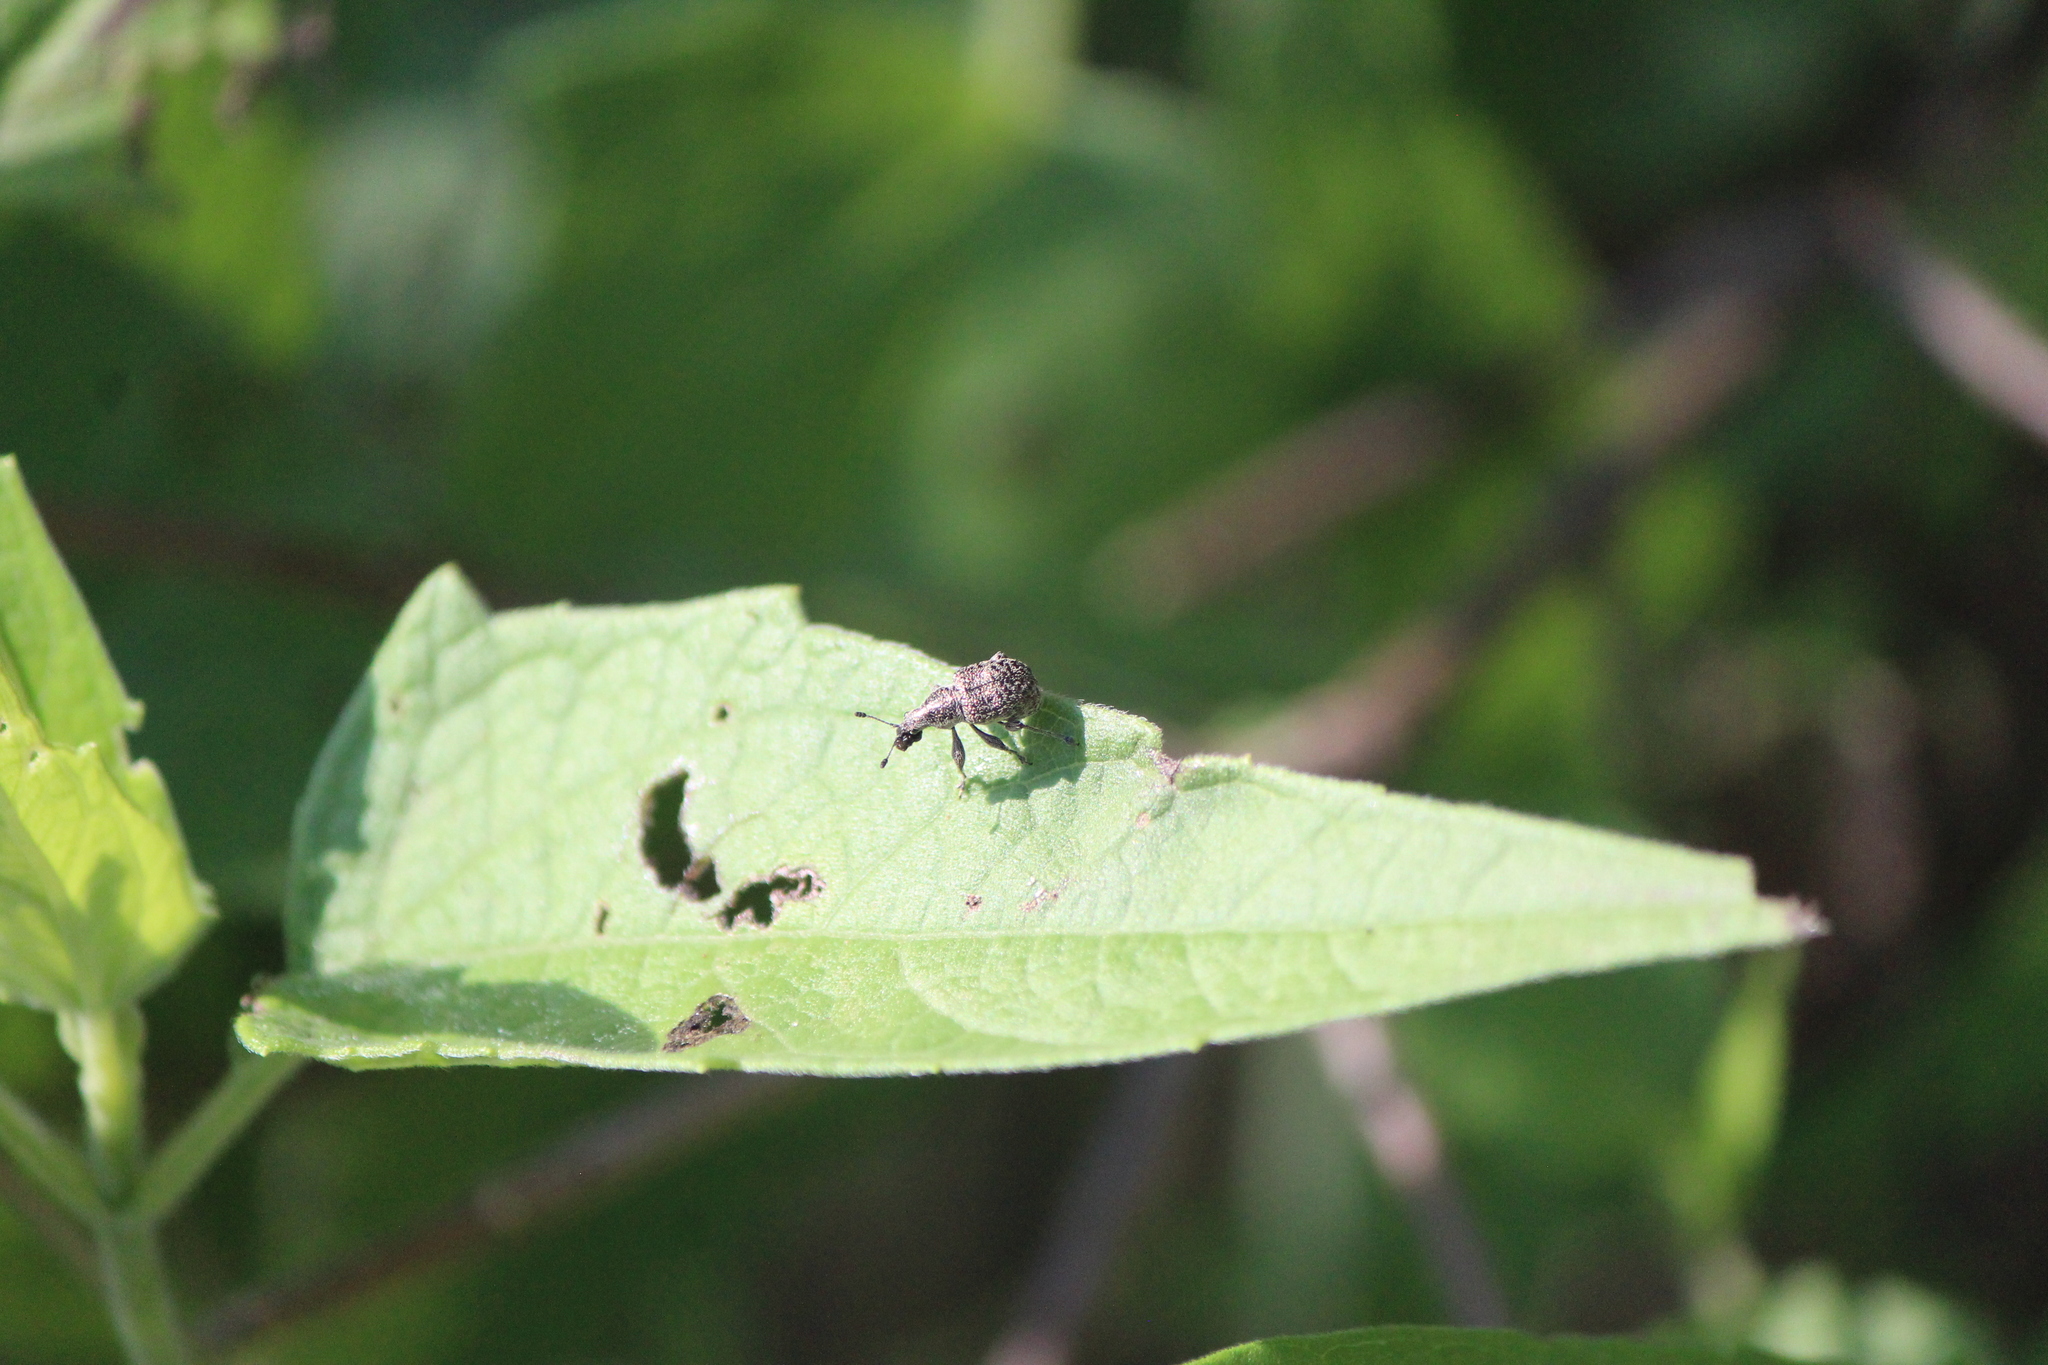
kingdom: Animalia
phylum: Arthropoda
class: Insecta
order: Coleoptera
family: Attelabidae
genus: Pilolabus
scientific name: Pilolabus klugi
